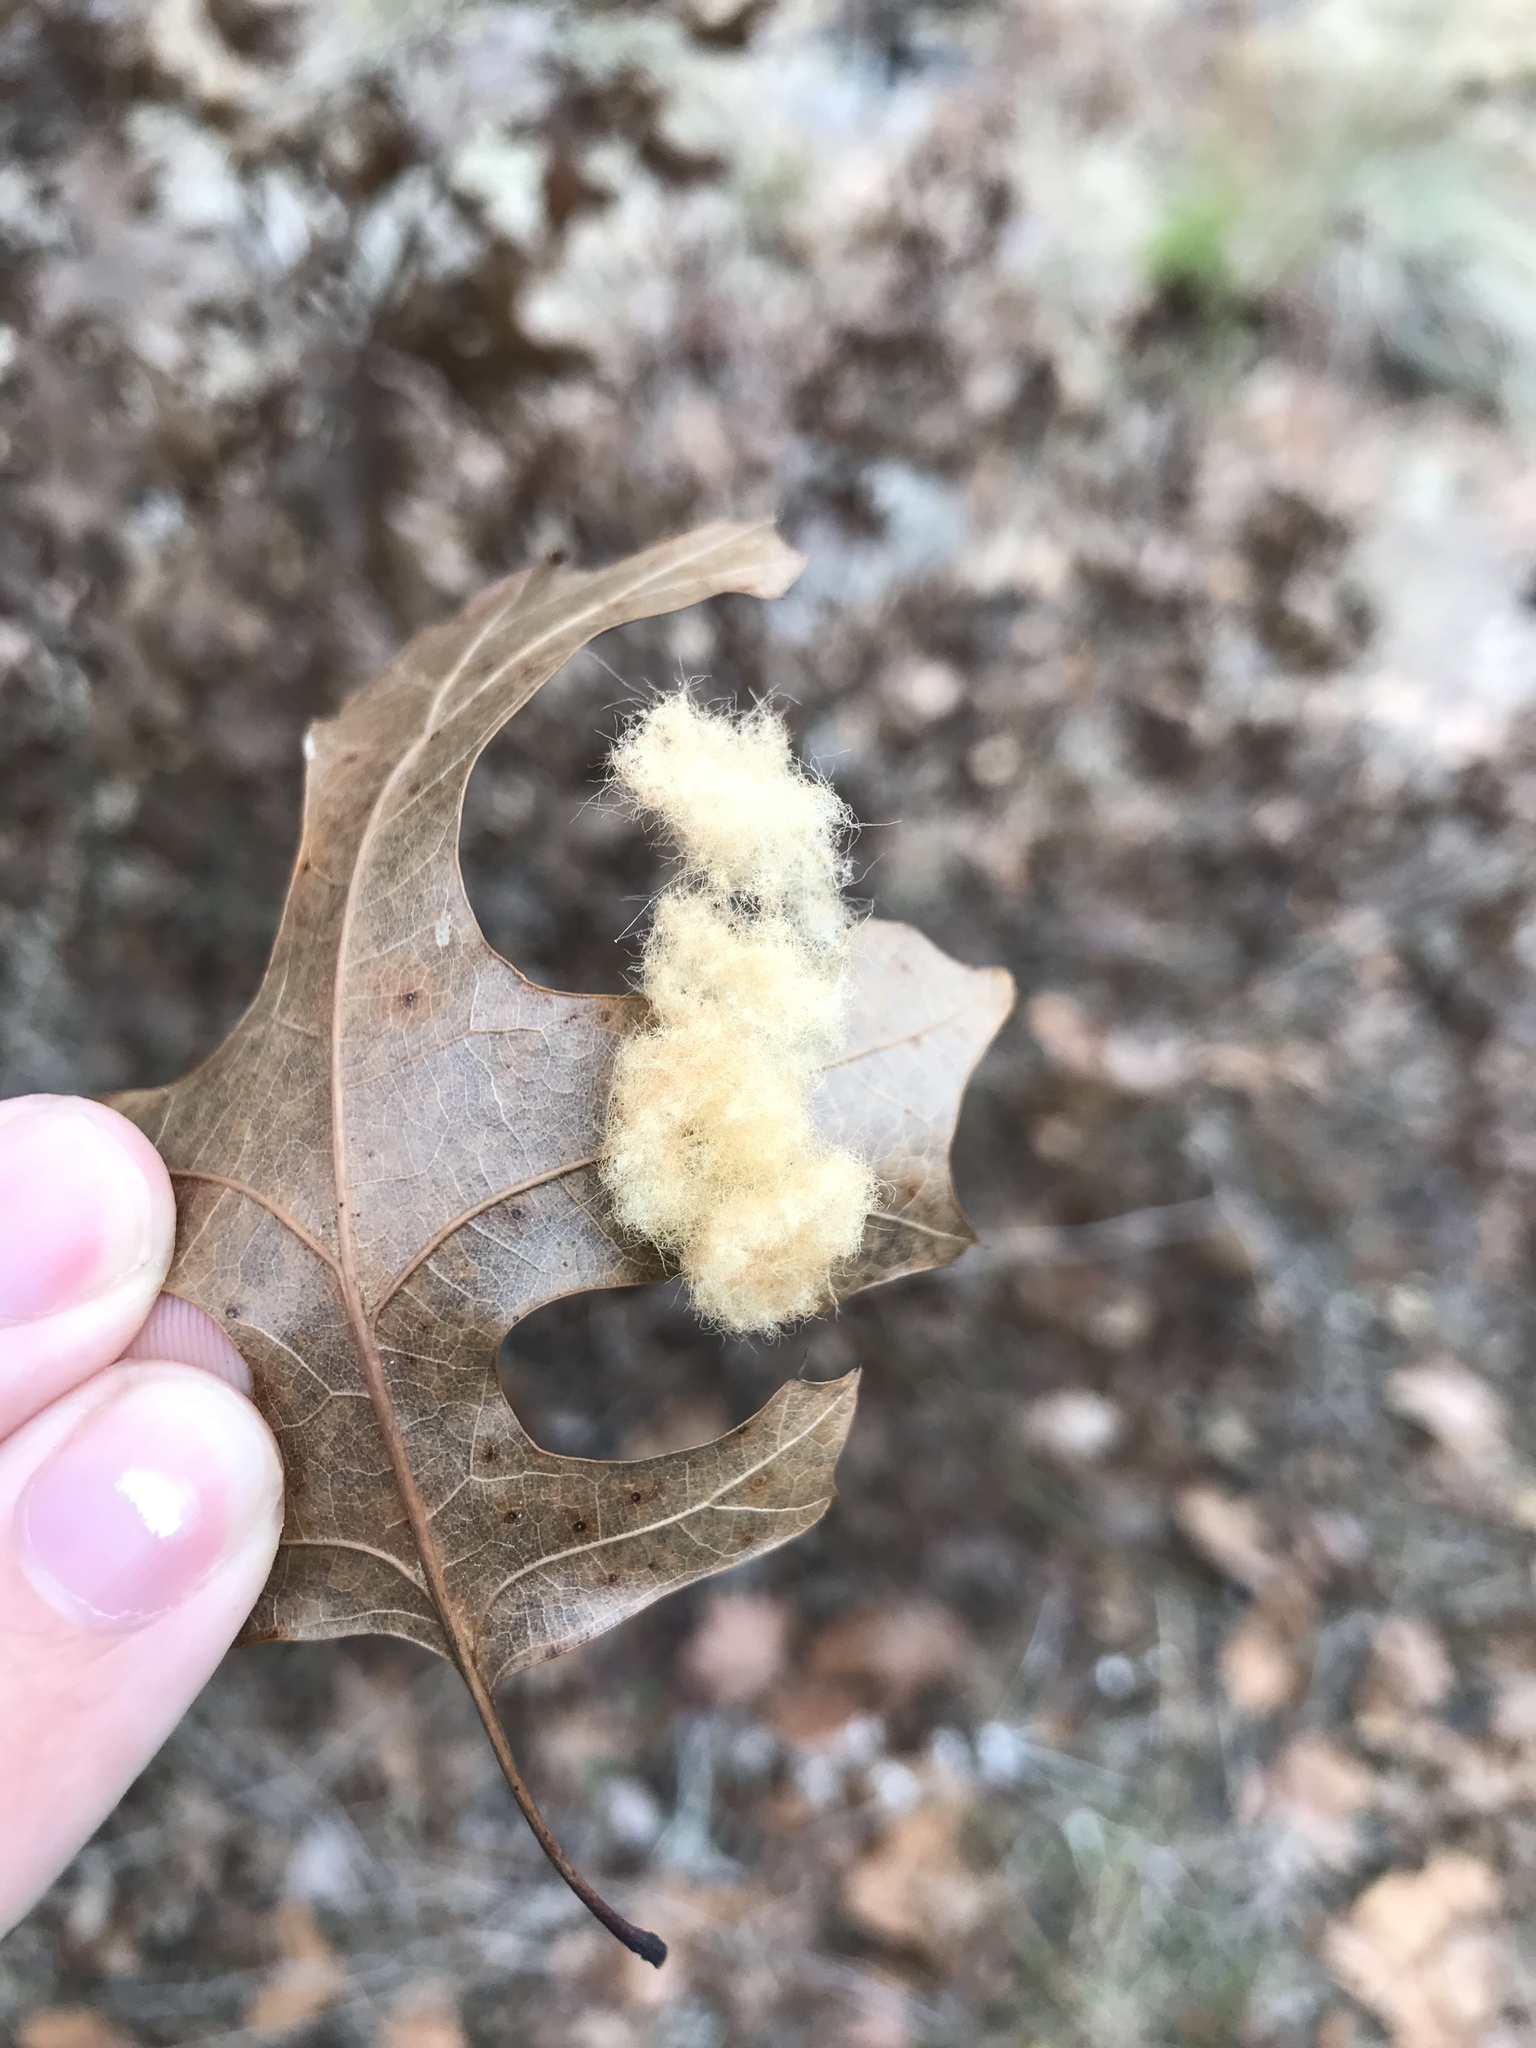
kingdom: Animalia
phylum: Arthropoda
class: Insecta
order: Hymenoptera
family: Cynipidae
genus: Andricus
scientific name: Andricus Druon pattoni
